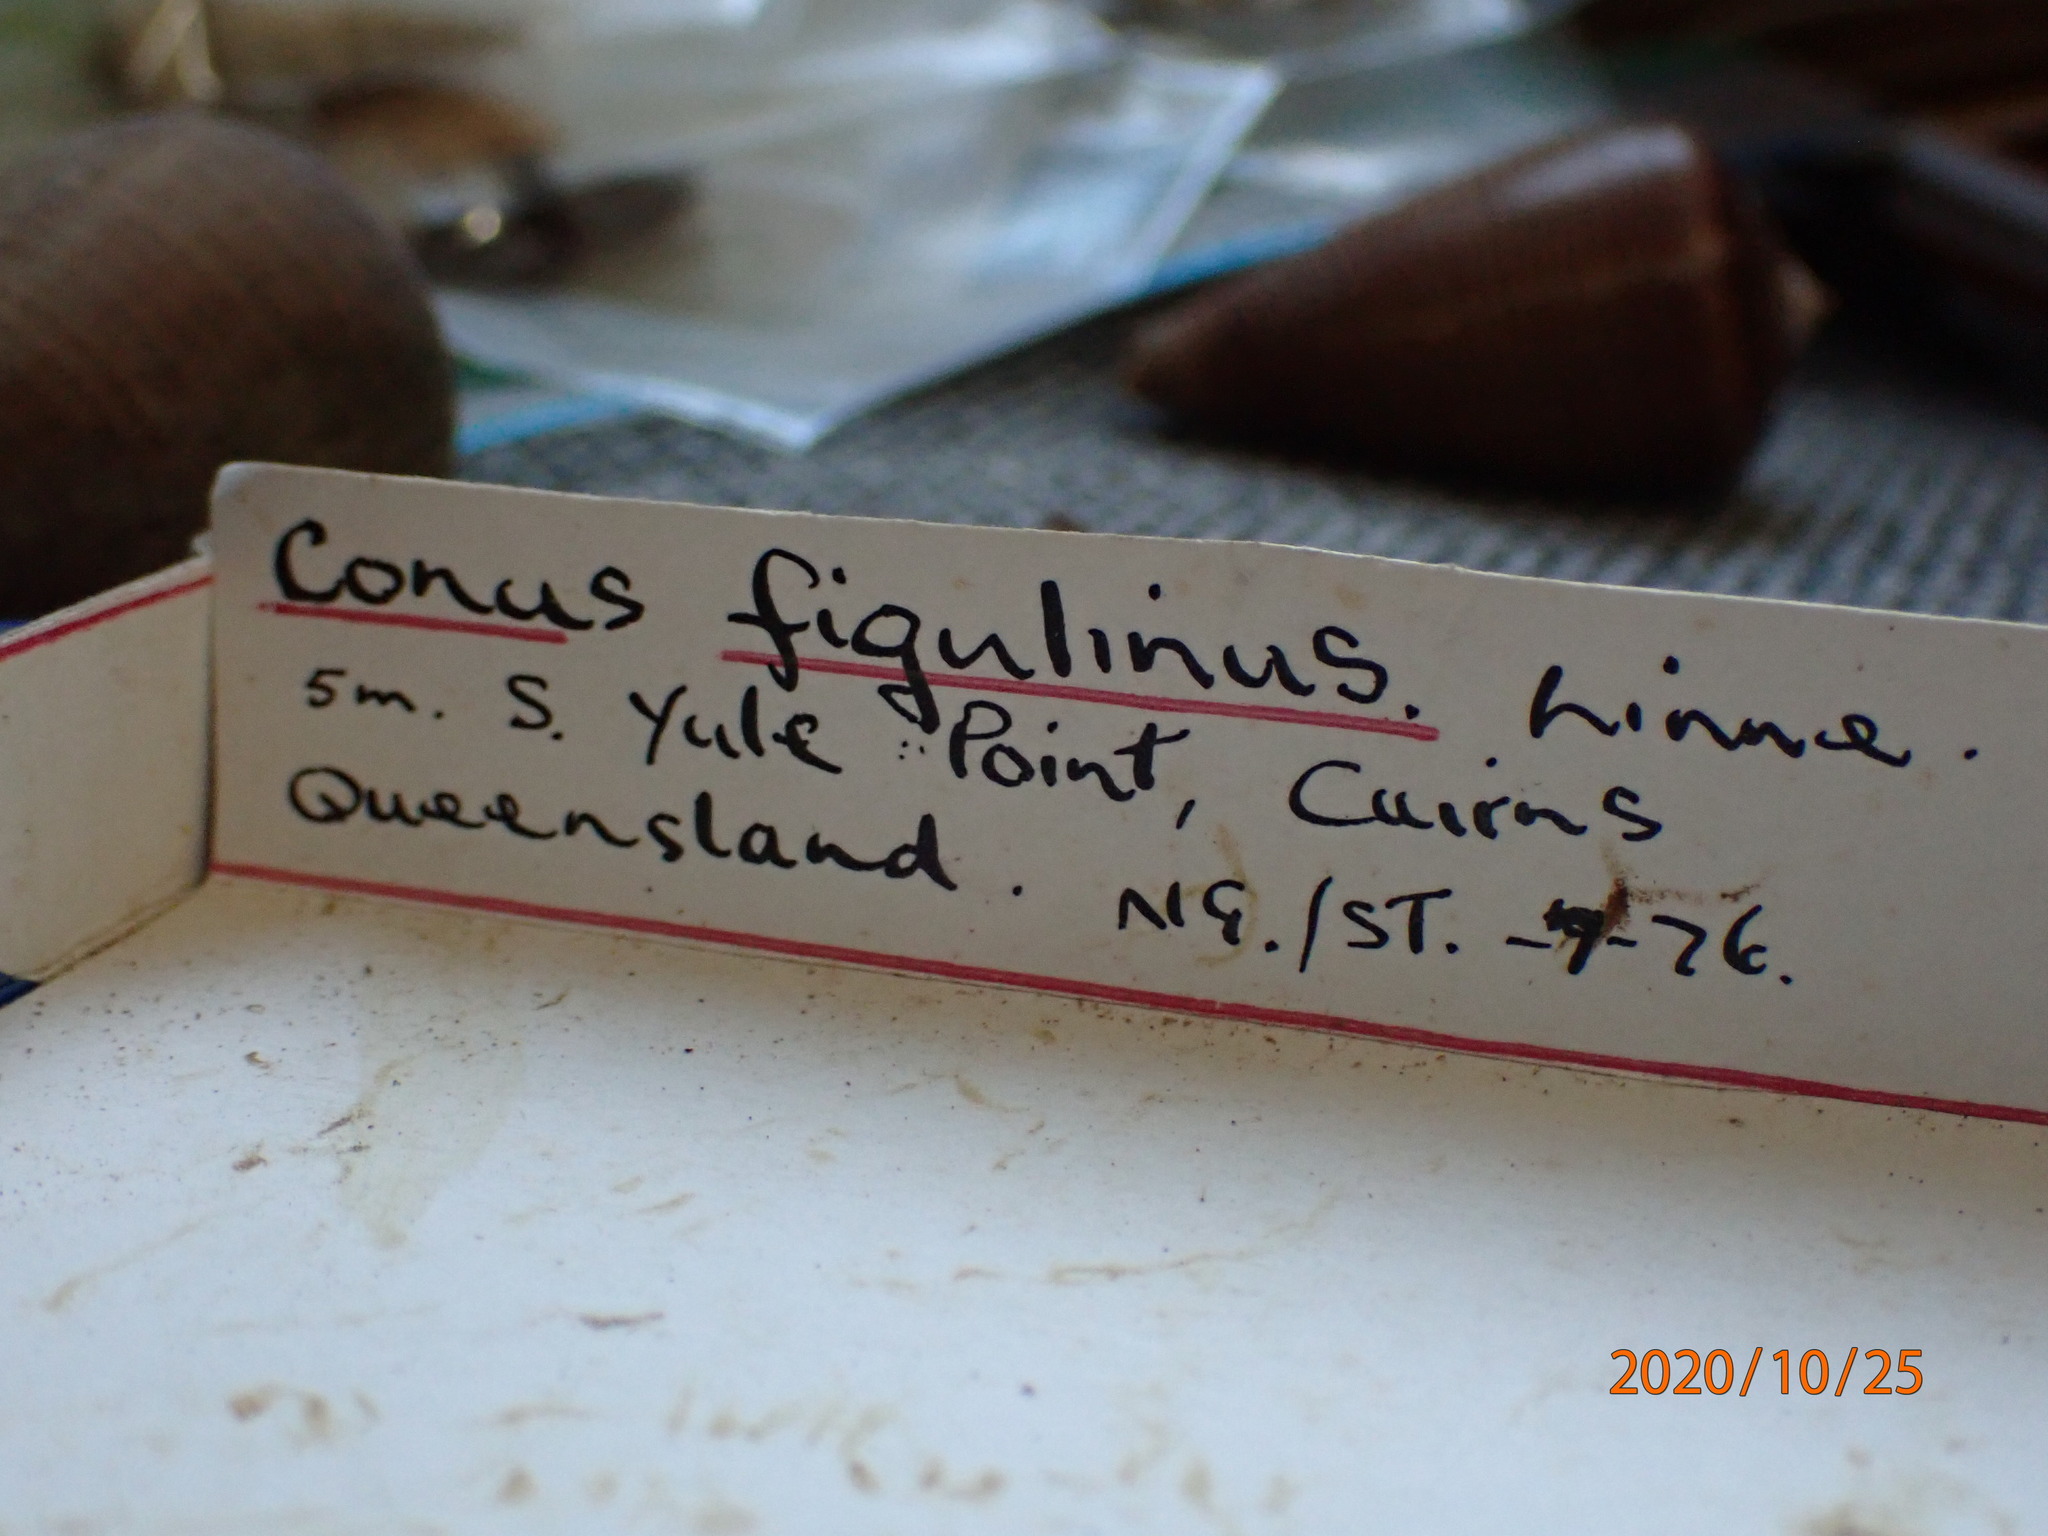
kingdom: Animalia
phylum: Mollusca
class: Gastropoda
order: Neogastropoda
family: Conidae
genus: Conus
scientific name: Conus figulinus
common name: Fig cone
